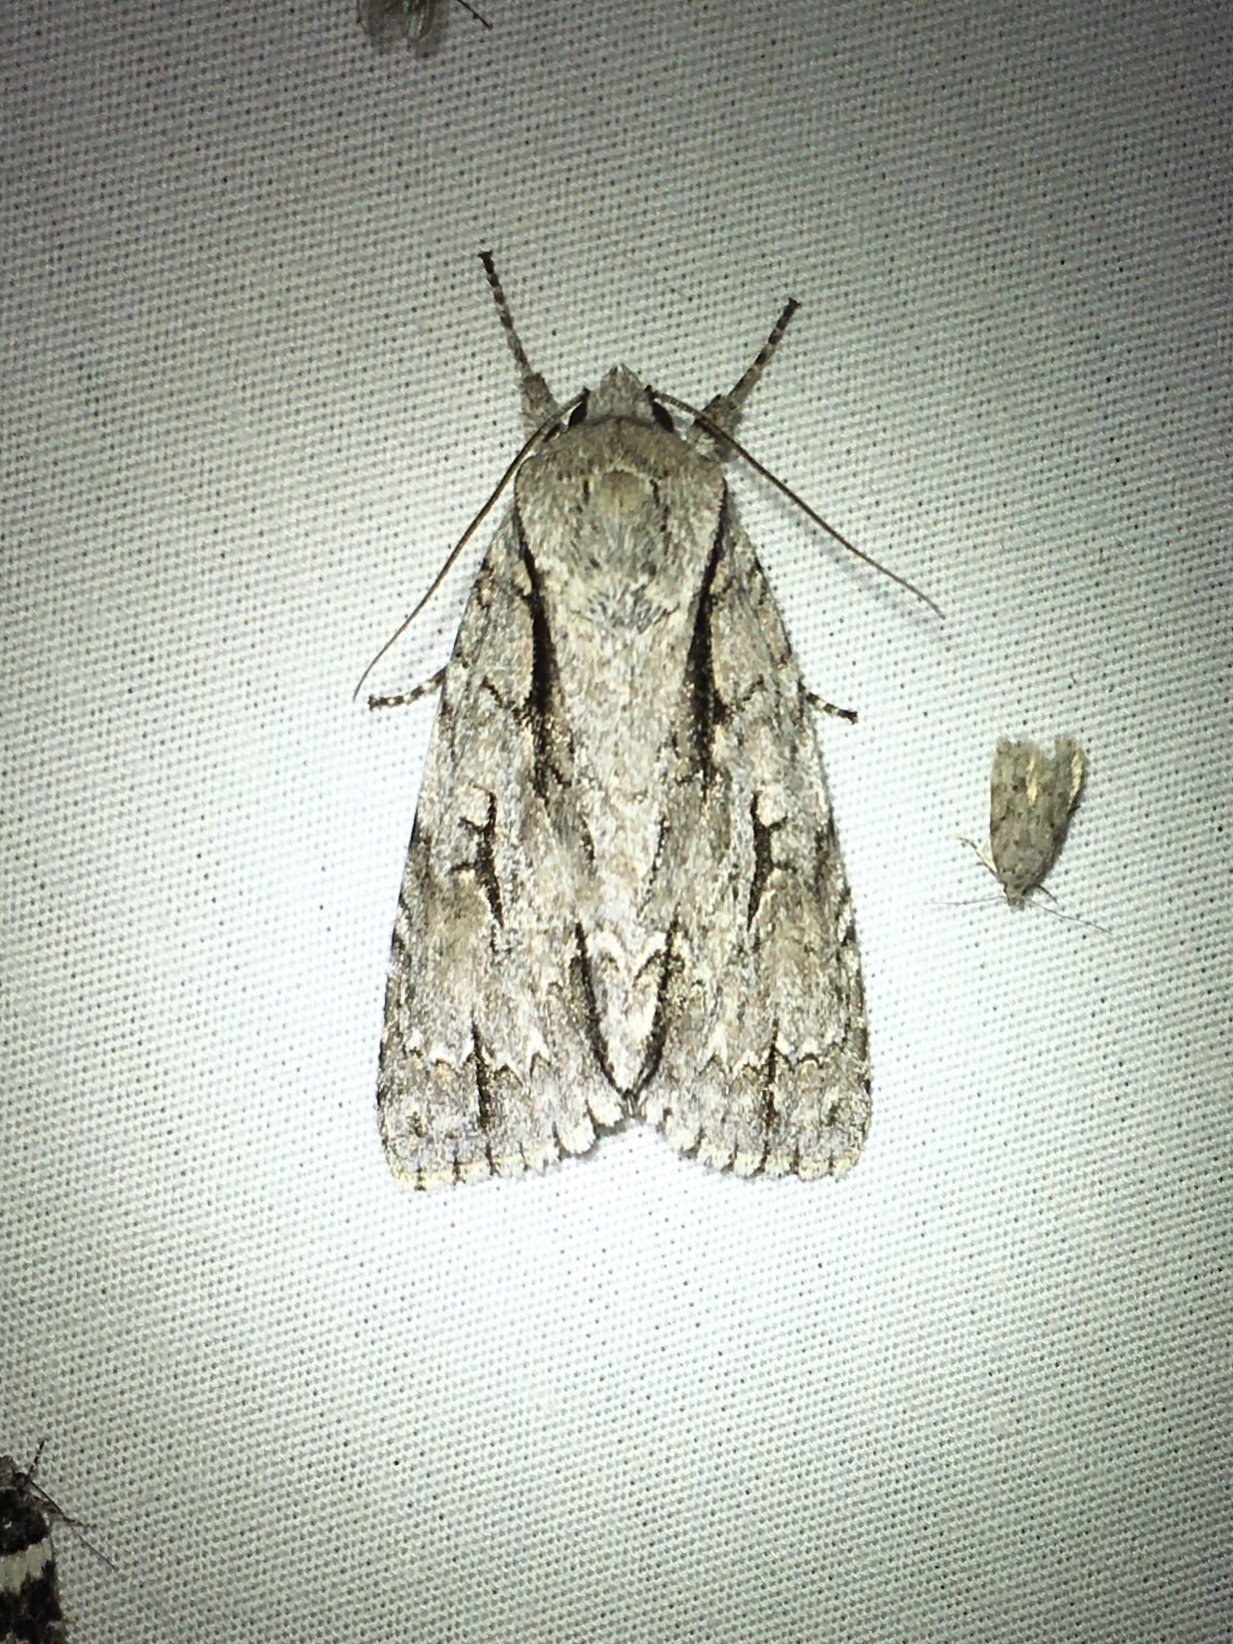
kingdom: Animalia
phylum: Arthropoda
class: Insecta
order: Lepidoptera
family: Noctuidae
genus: Acronicta
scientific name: Acronicta lobeliae
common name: Greater oak dagger
